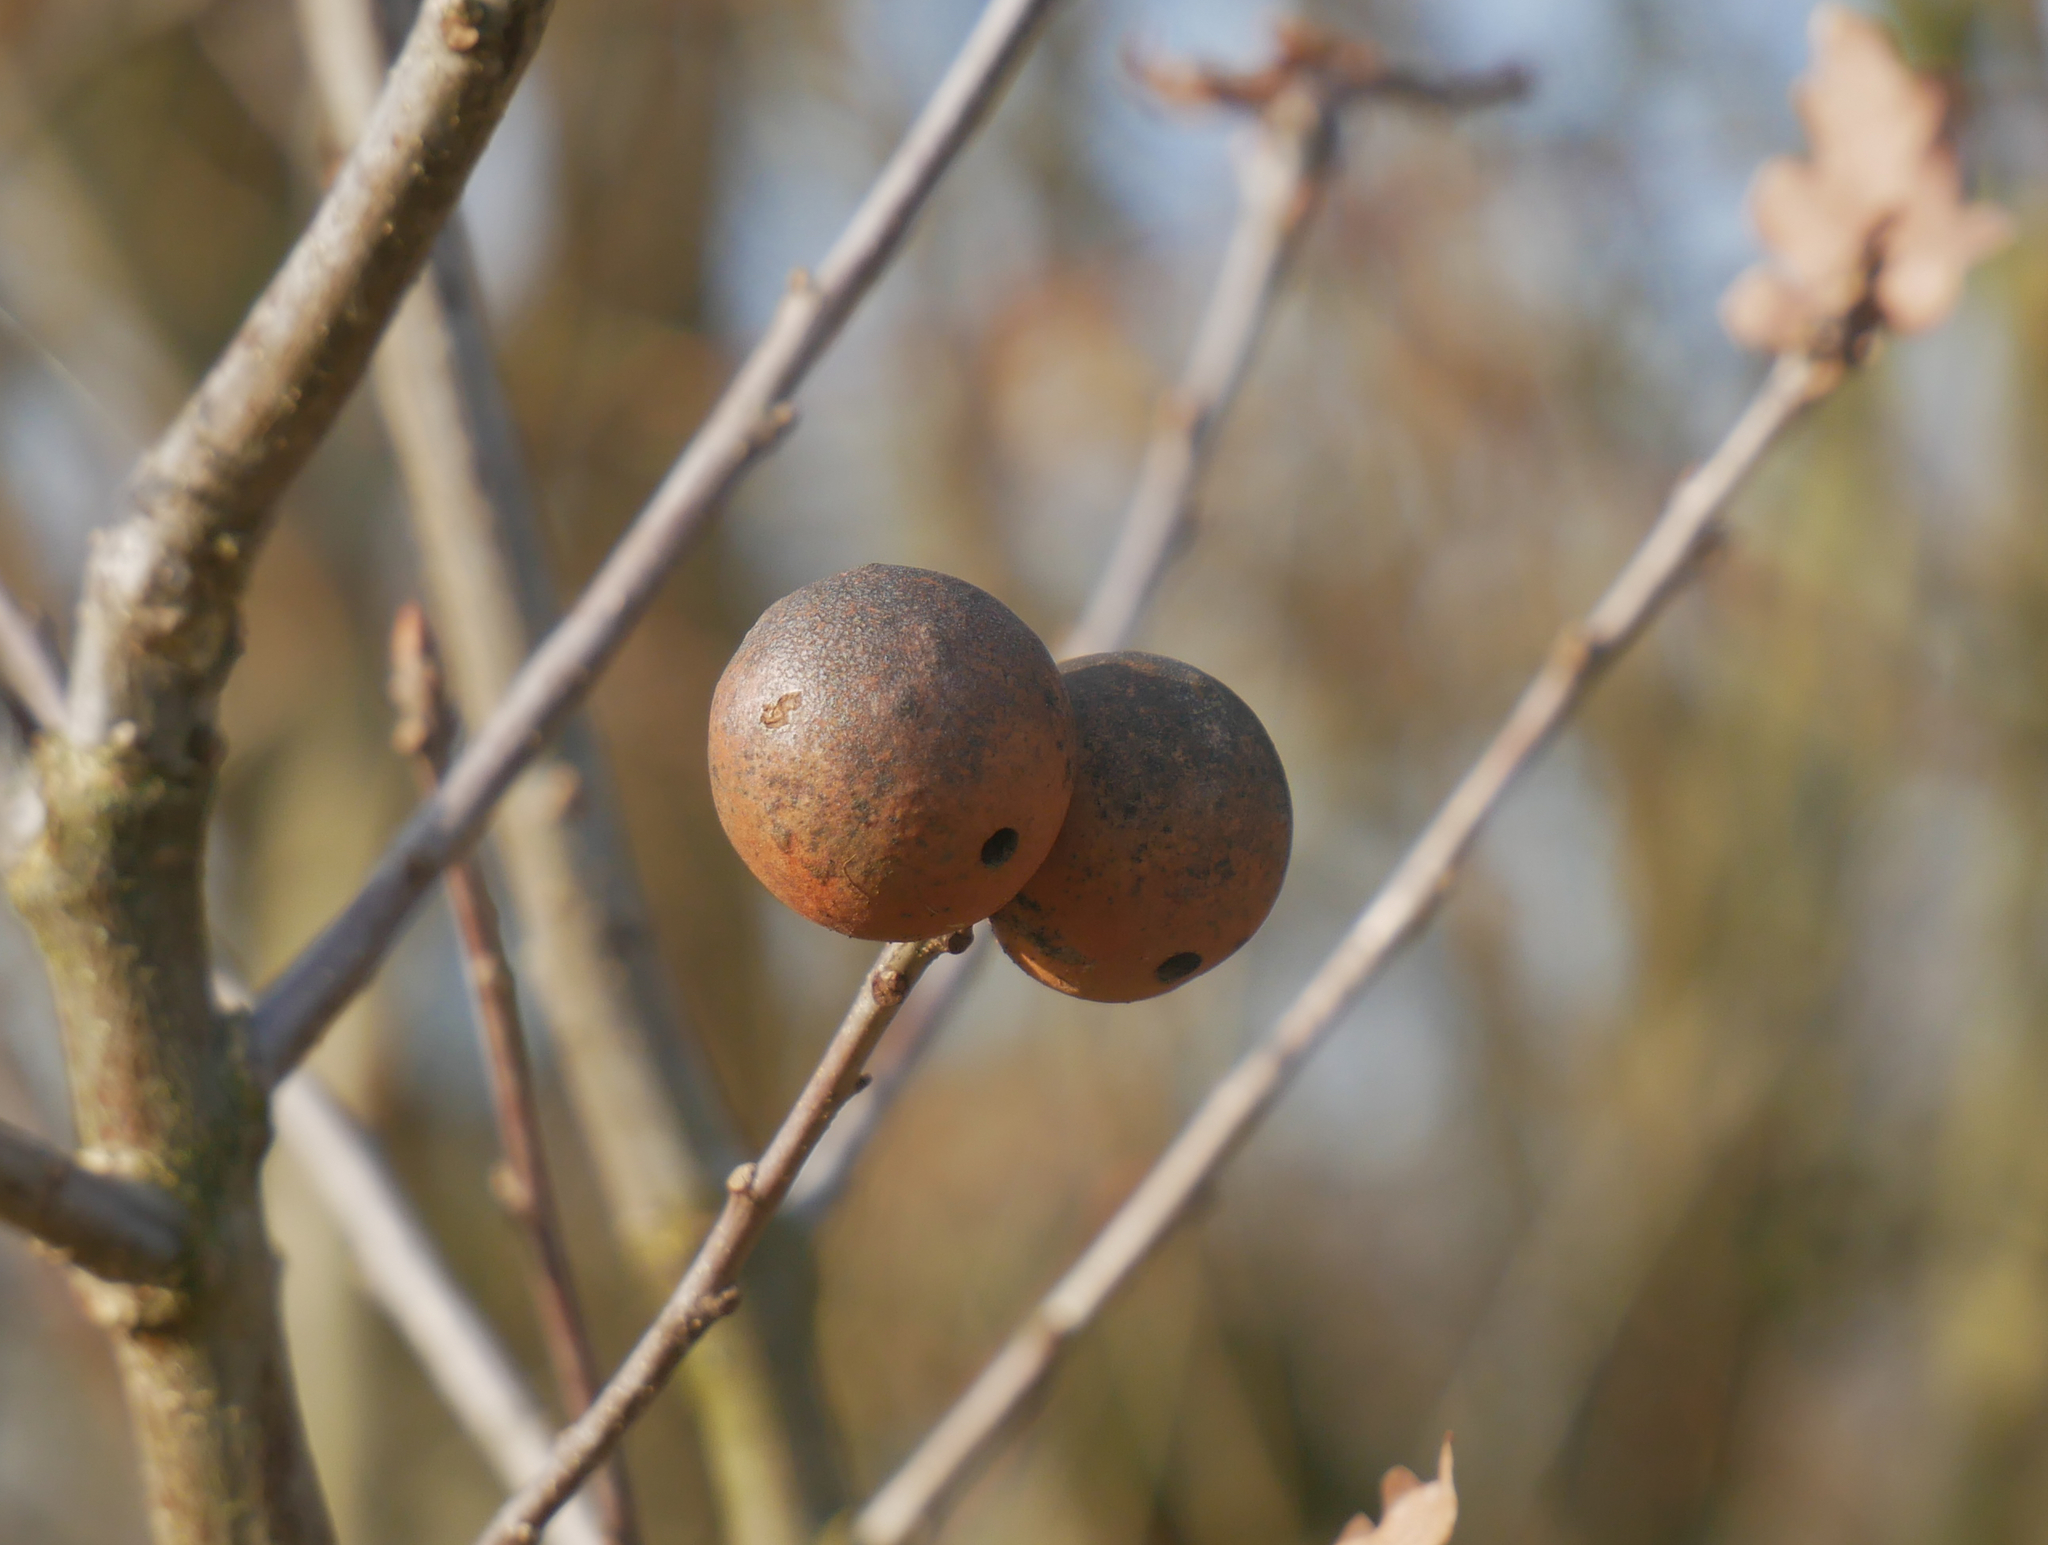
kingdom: Animalia
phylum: Arthropoda
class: Insecta
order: Hymenoptera
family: Cynipidae
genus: Andricus
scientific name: Andricus kollari
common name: Marble gall
